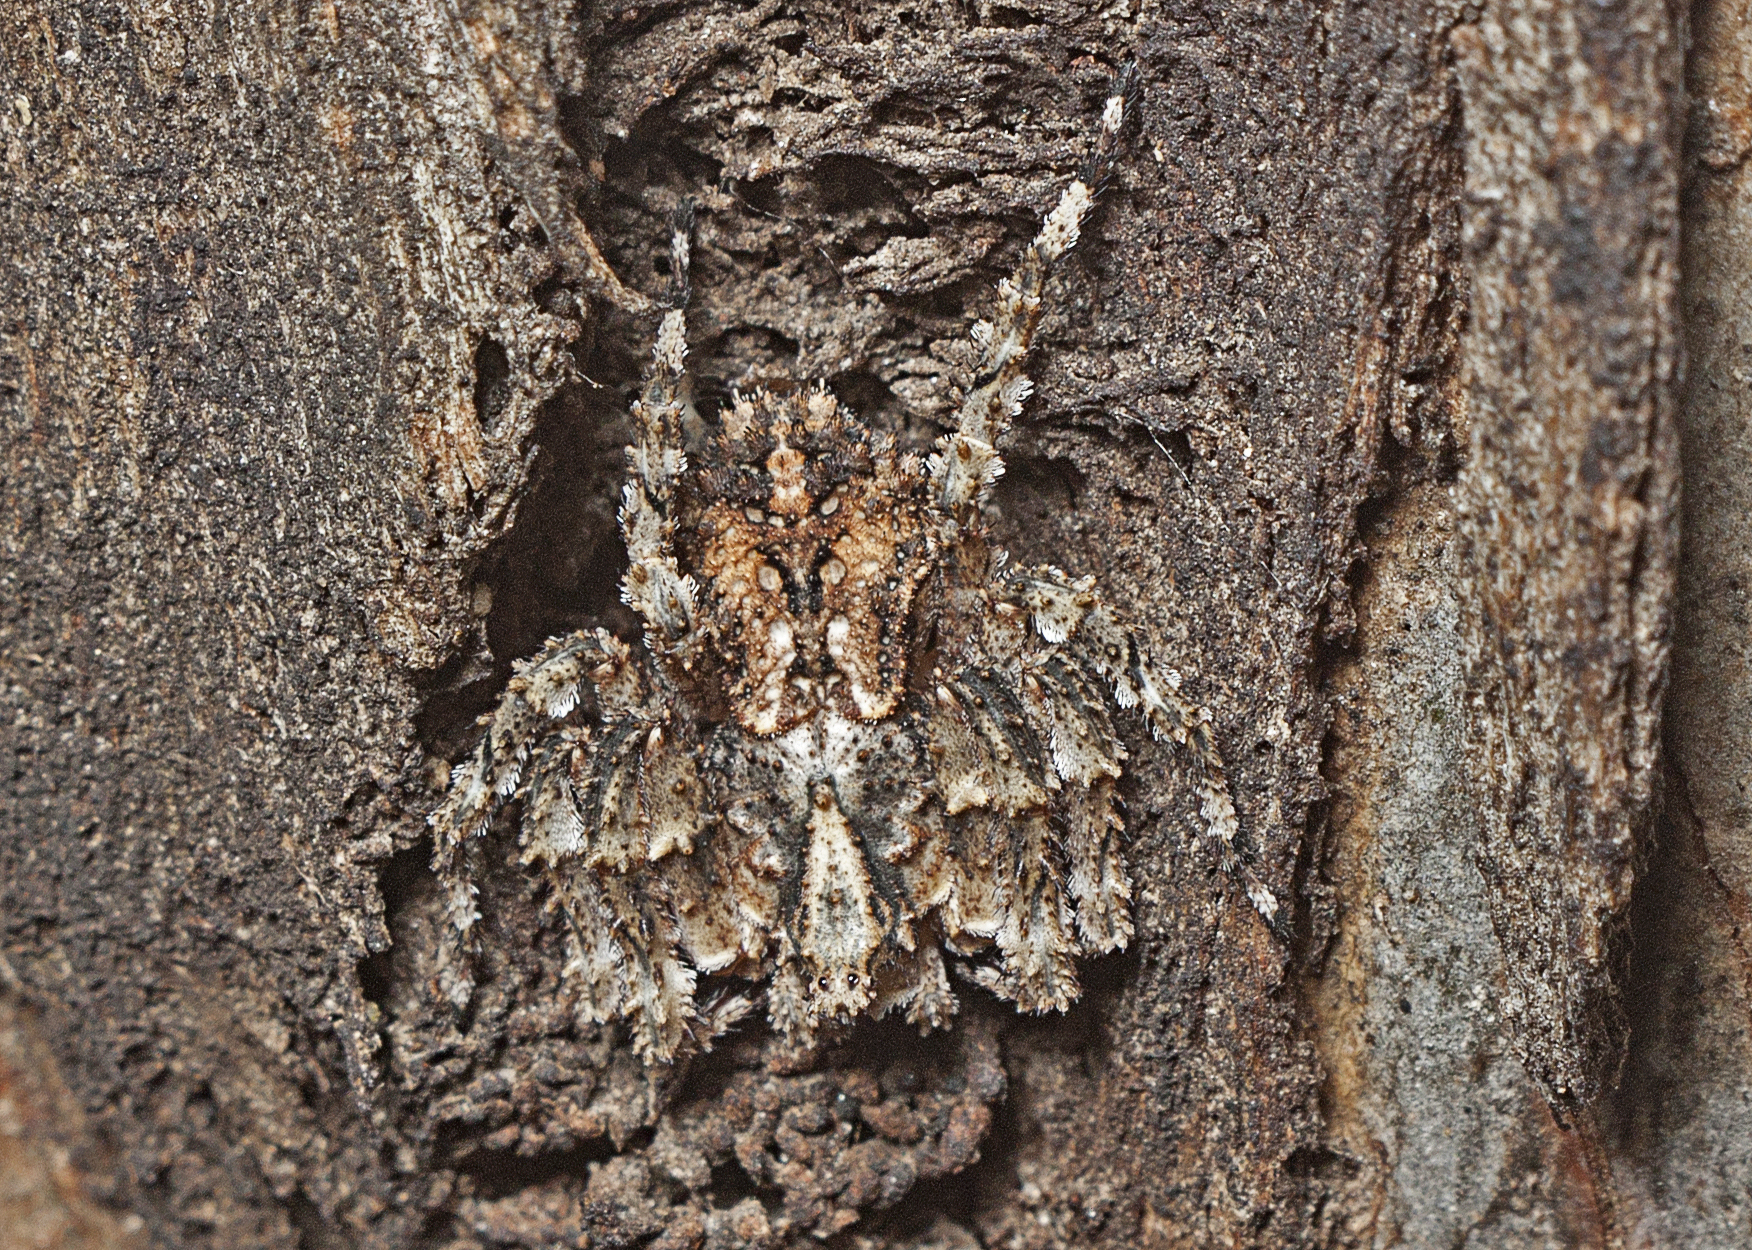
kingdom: Animalia
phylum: Arthropoda
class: Arachnida
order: Araneae
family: Thomisidae
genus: Stephanopis
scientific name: Stephanopis altifrons
